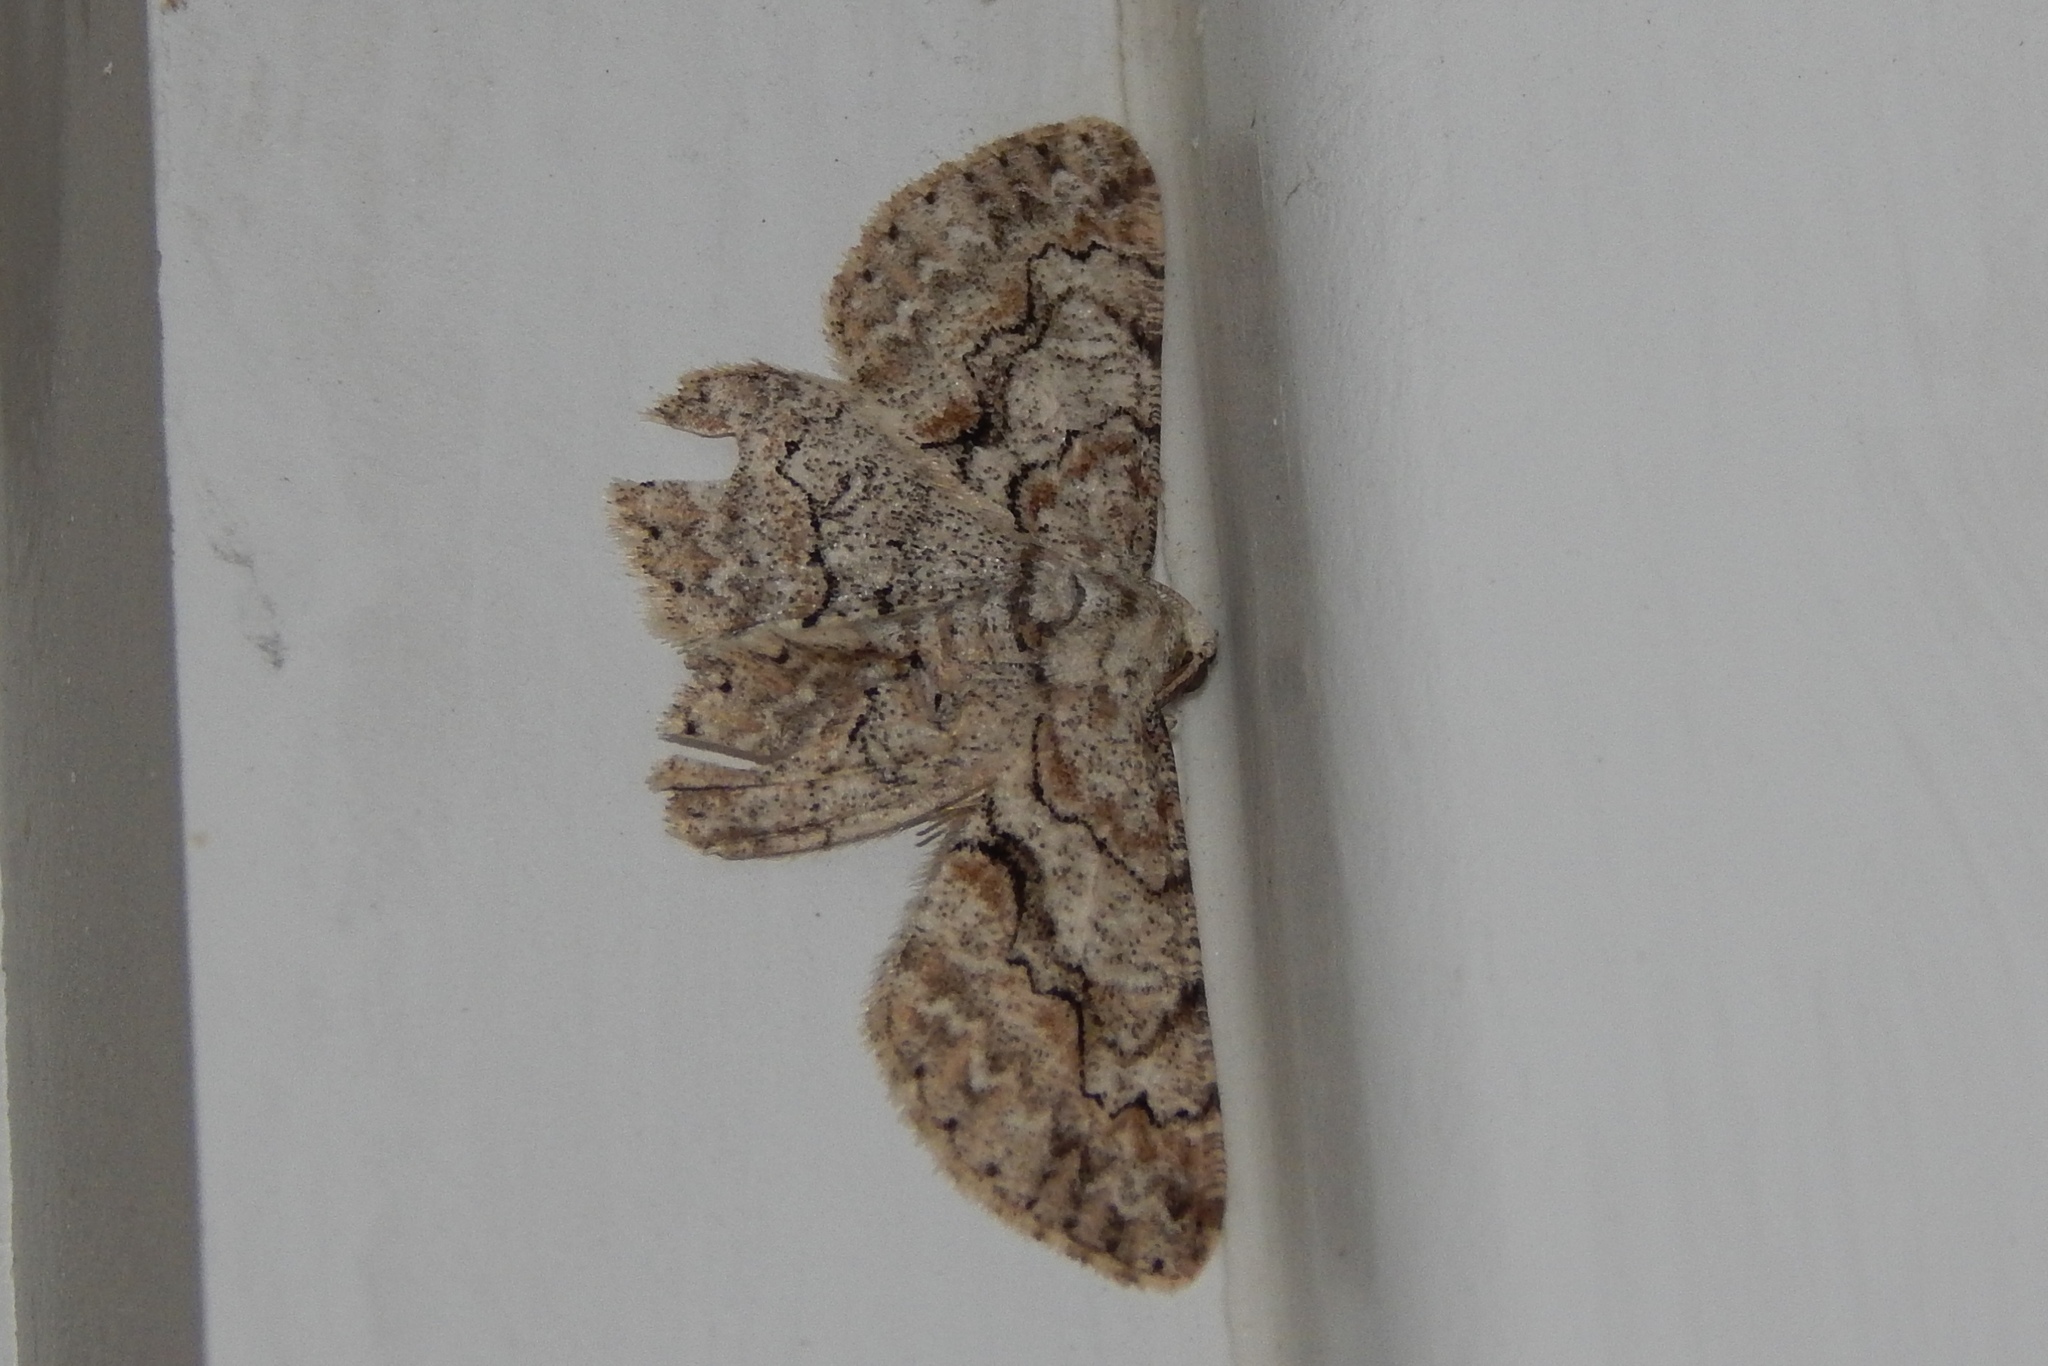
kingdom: Animalia
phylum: Arthropoda
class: Insecta
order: Lepidoptera
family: Geometridae
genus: Iridopsis
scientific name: Iridopsis defectaria
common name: Brown-shaded gray
